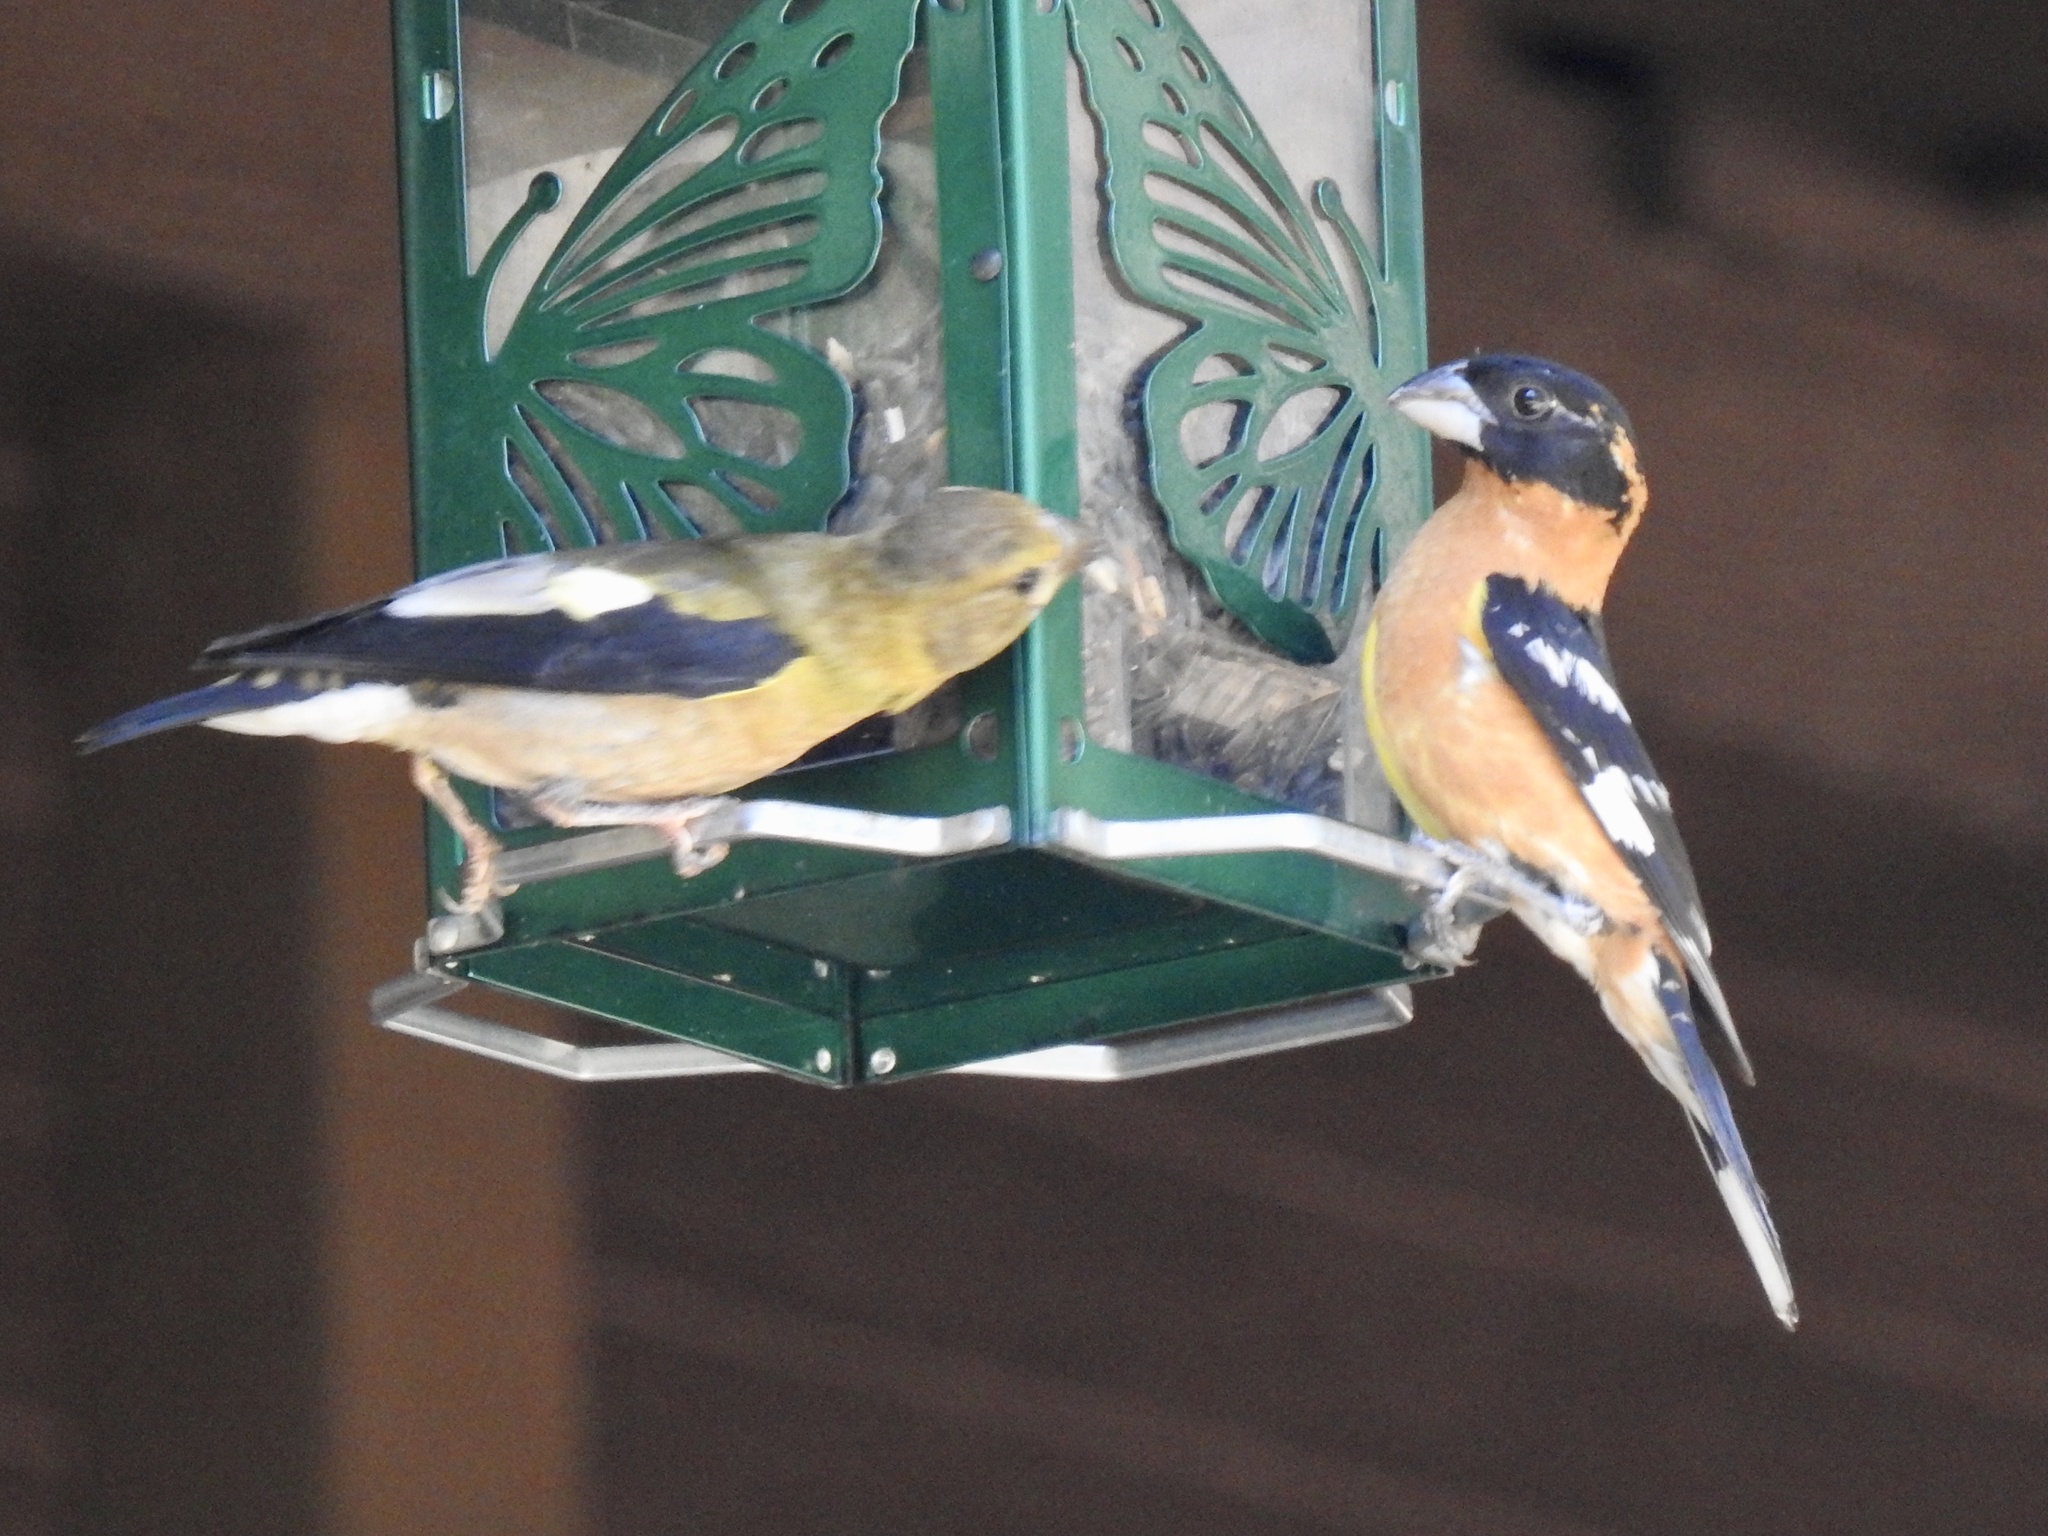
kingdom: Animalia
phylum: Chordata
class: Aves
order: Passeriformes
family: Cardinalidae
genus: Pheucticus
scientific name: Pheucticus melanocephalus
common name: Black-headed grosbeak
